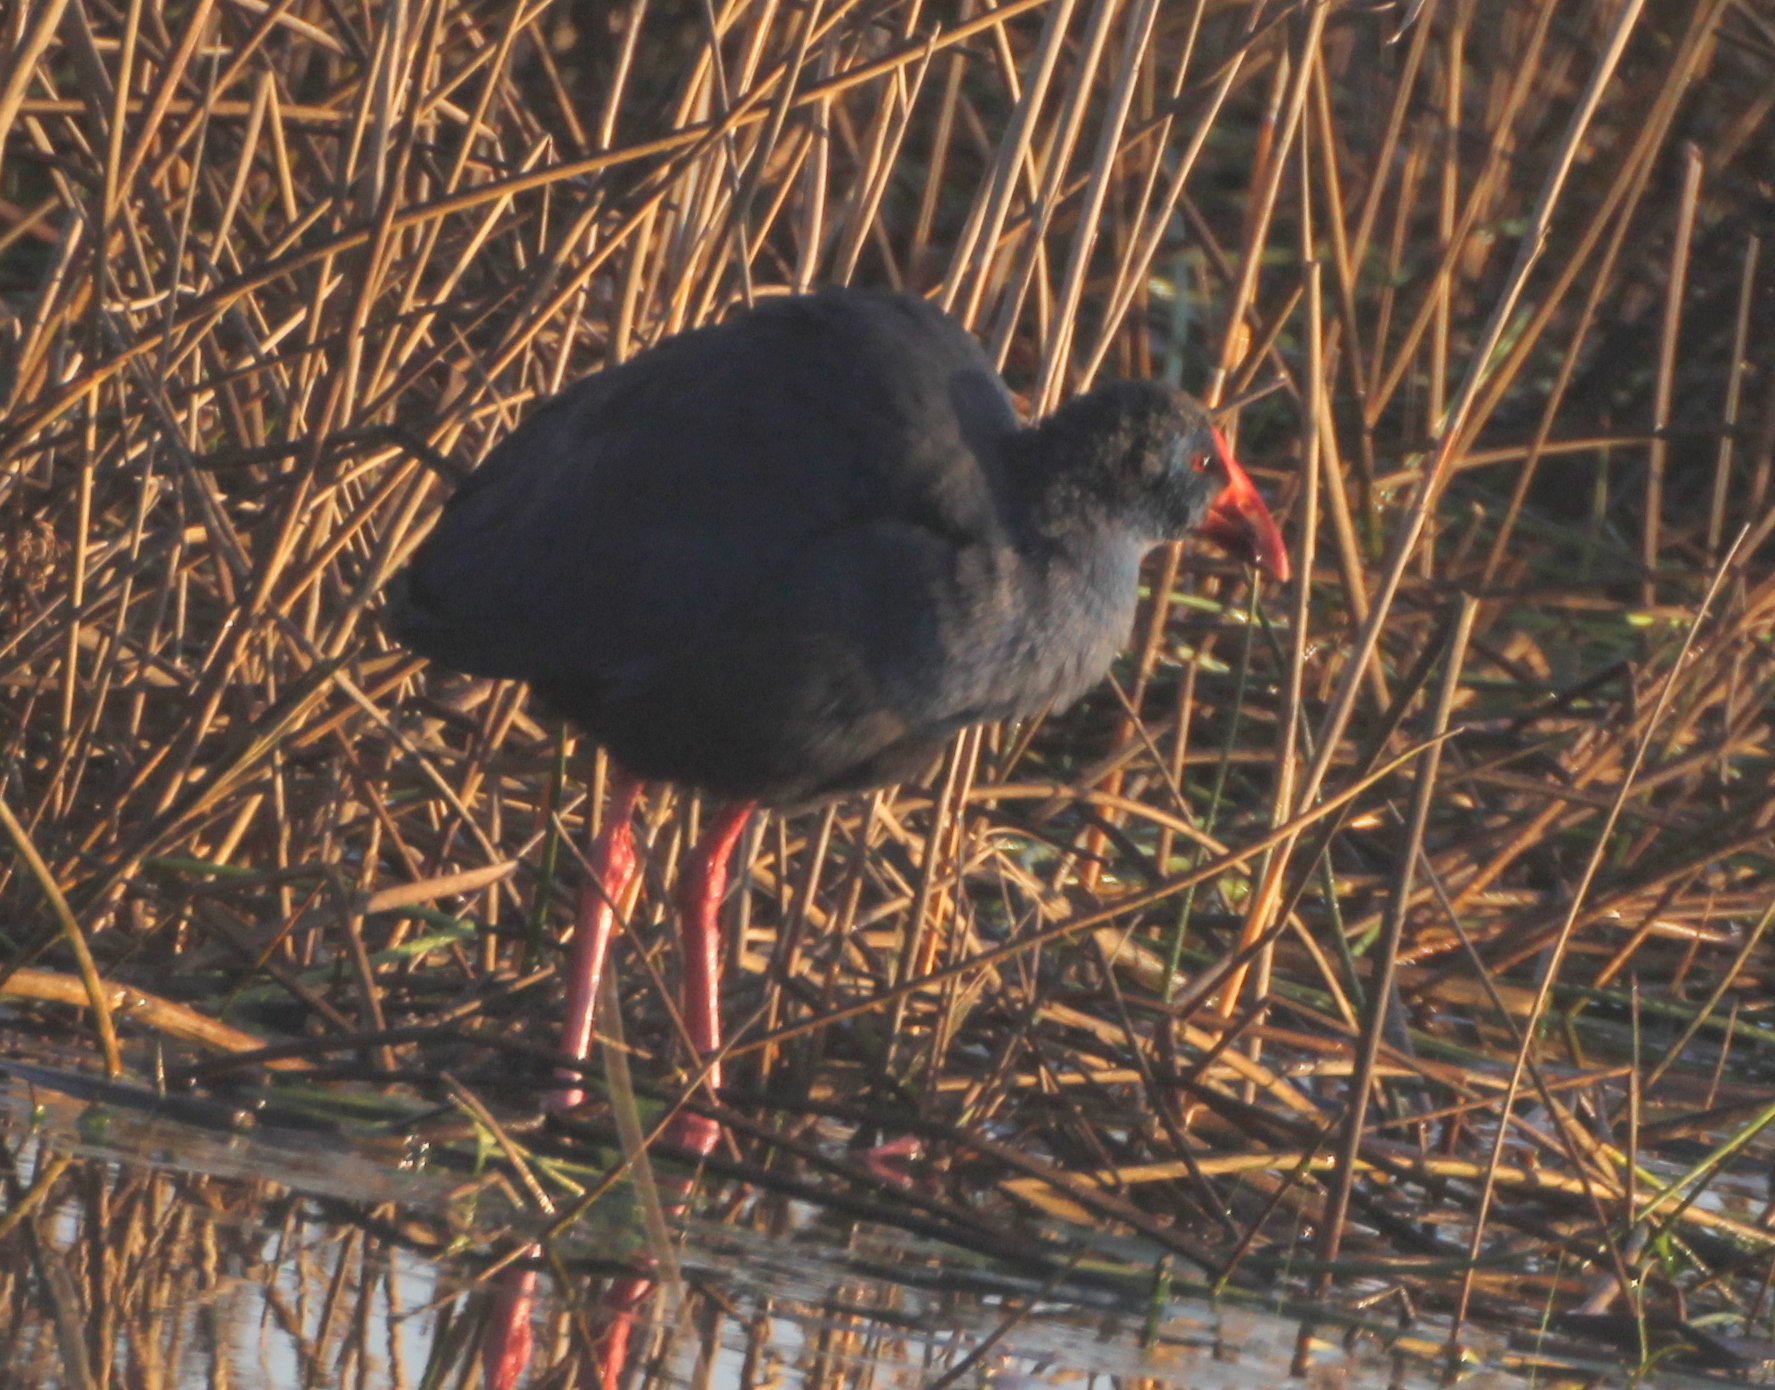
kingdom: Animalia
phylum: Chordata
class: Aves
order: Gruiformes
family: Rallidae
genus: Porphyrio
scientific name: Porphyrio porphyrio
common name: Purple swamphen
